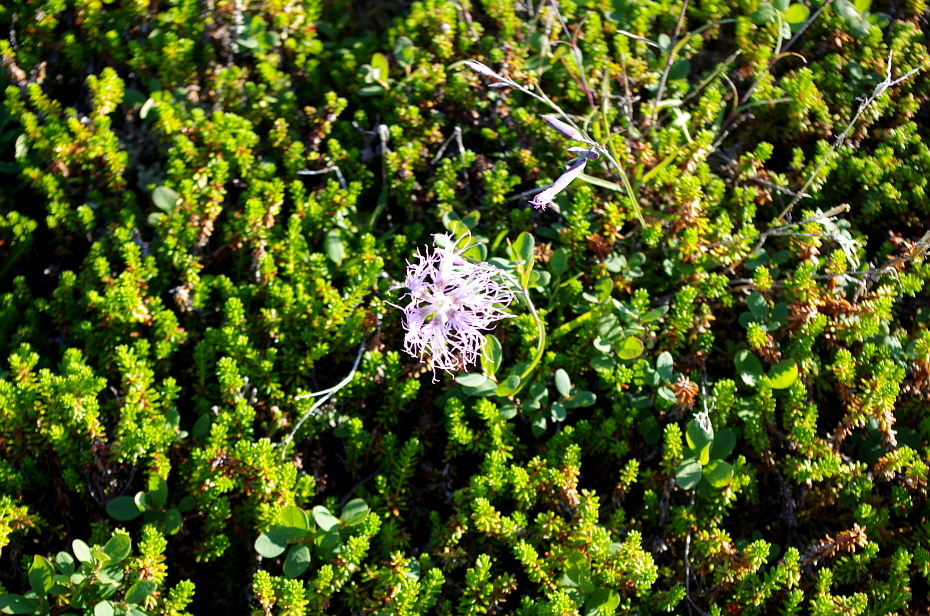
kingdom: Plantae
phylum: Tracheophyta
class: Magnoliopsida
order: Caryophyllales
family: Caryophyllaceae
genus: Dianthus
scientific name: Dianthus superbus
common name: Fringed pink
